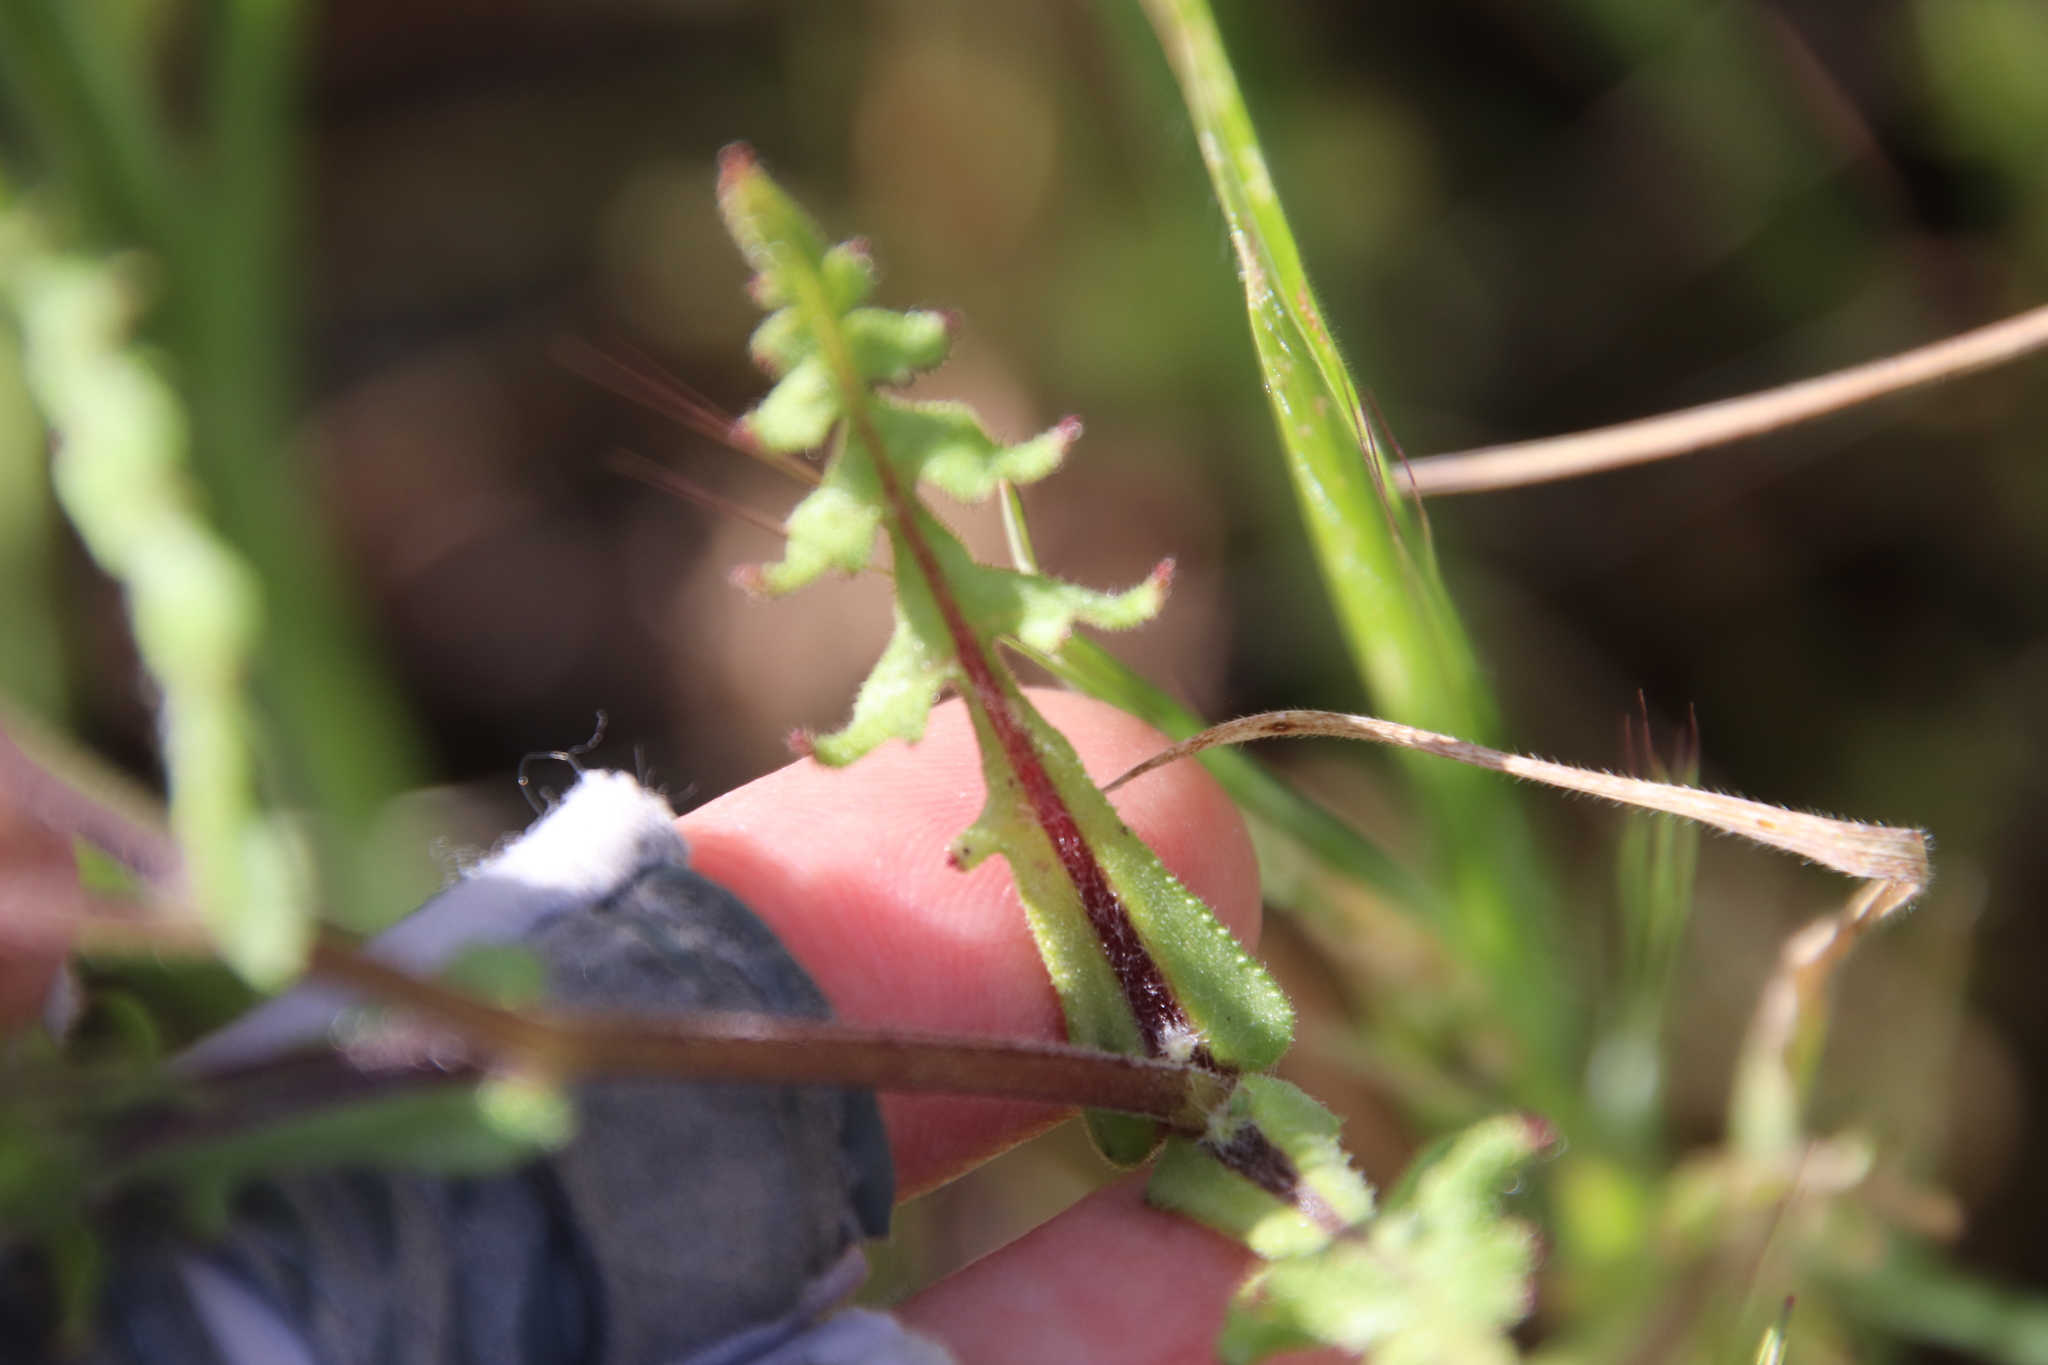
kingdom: Plantae
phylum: Tracheophyta
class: Magnoliopsida
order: Boraginales
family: Hydrophyllaceae
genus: Pholistoma
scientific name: Pholistoma auritum
